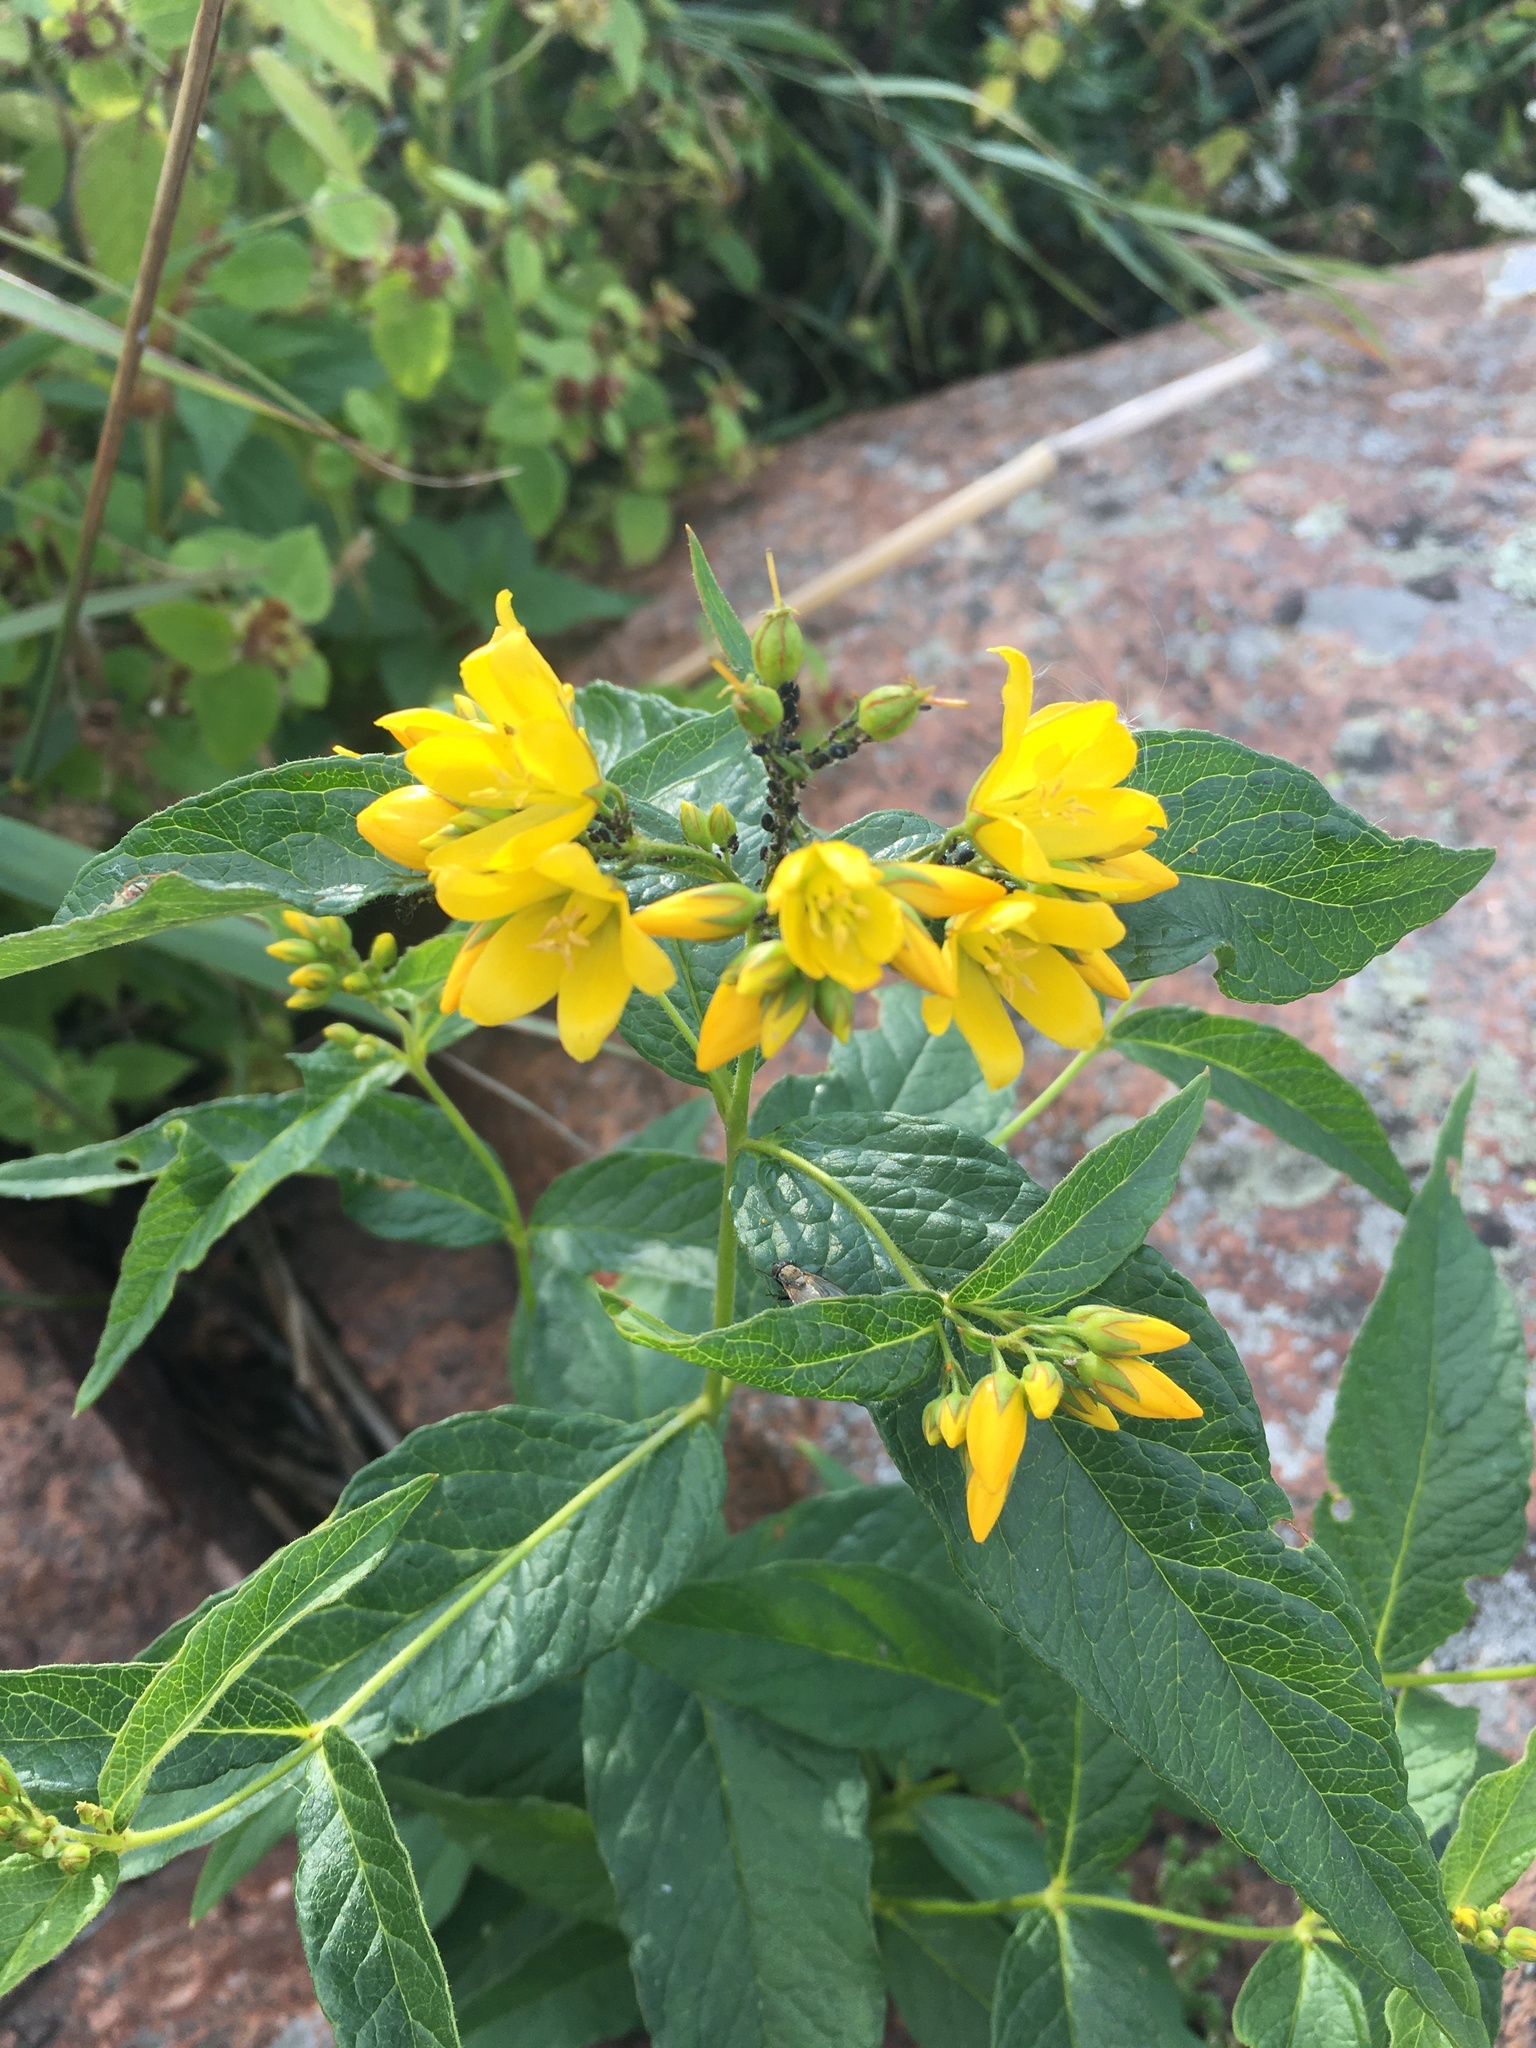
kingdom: Plantae
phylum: Tracheophyta
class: Magnoliopsida
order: Ericales
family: Primulaceae
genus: Lysimachia
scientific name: Lysimachia vulgaris
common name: Yellow loosestrife
